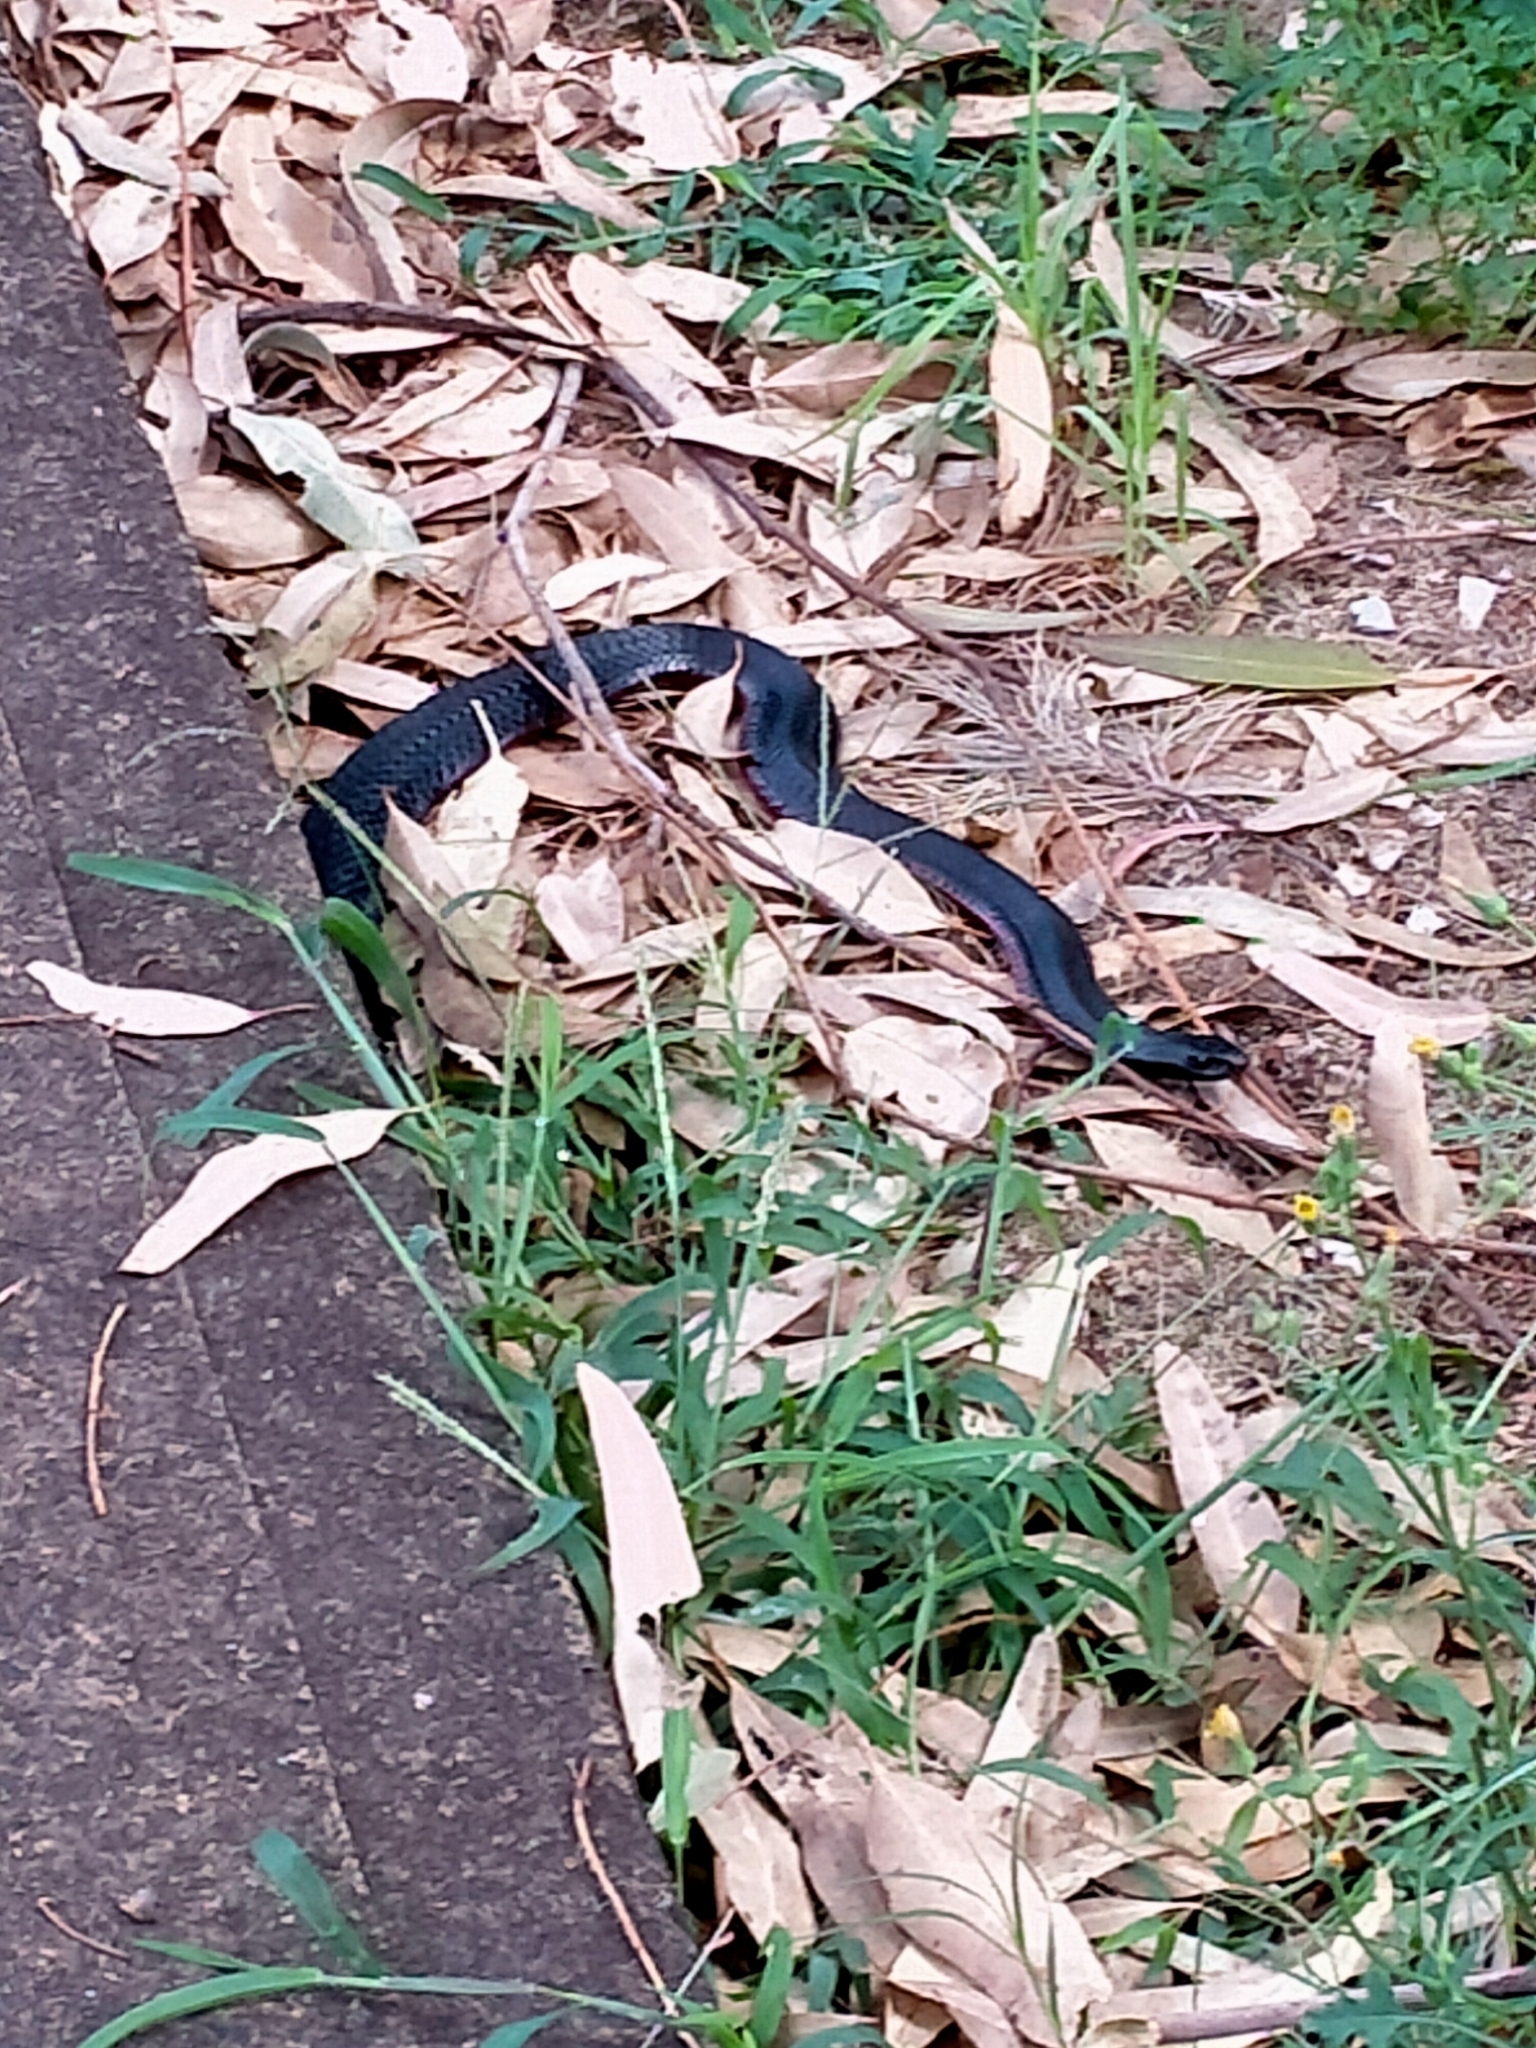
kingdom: Animalia
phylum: Chordata
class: Squamata
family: Elapidae
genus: Pseudechis
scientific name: Pseudechis porphyriacus
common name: Australian black snake
